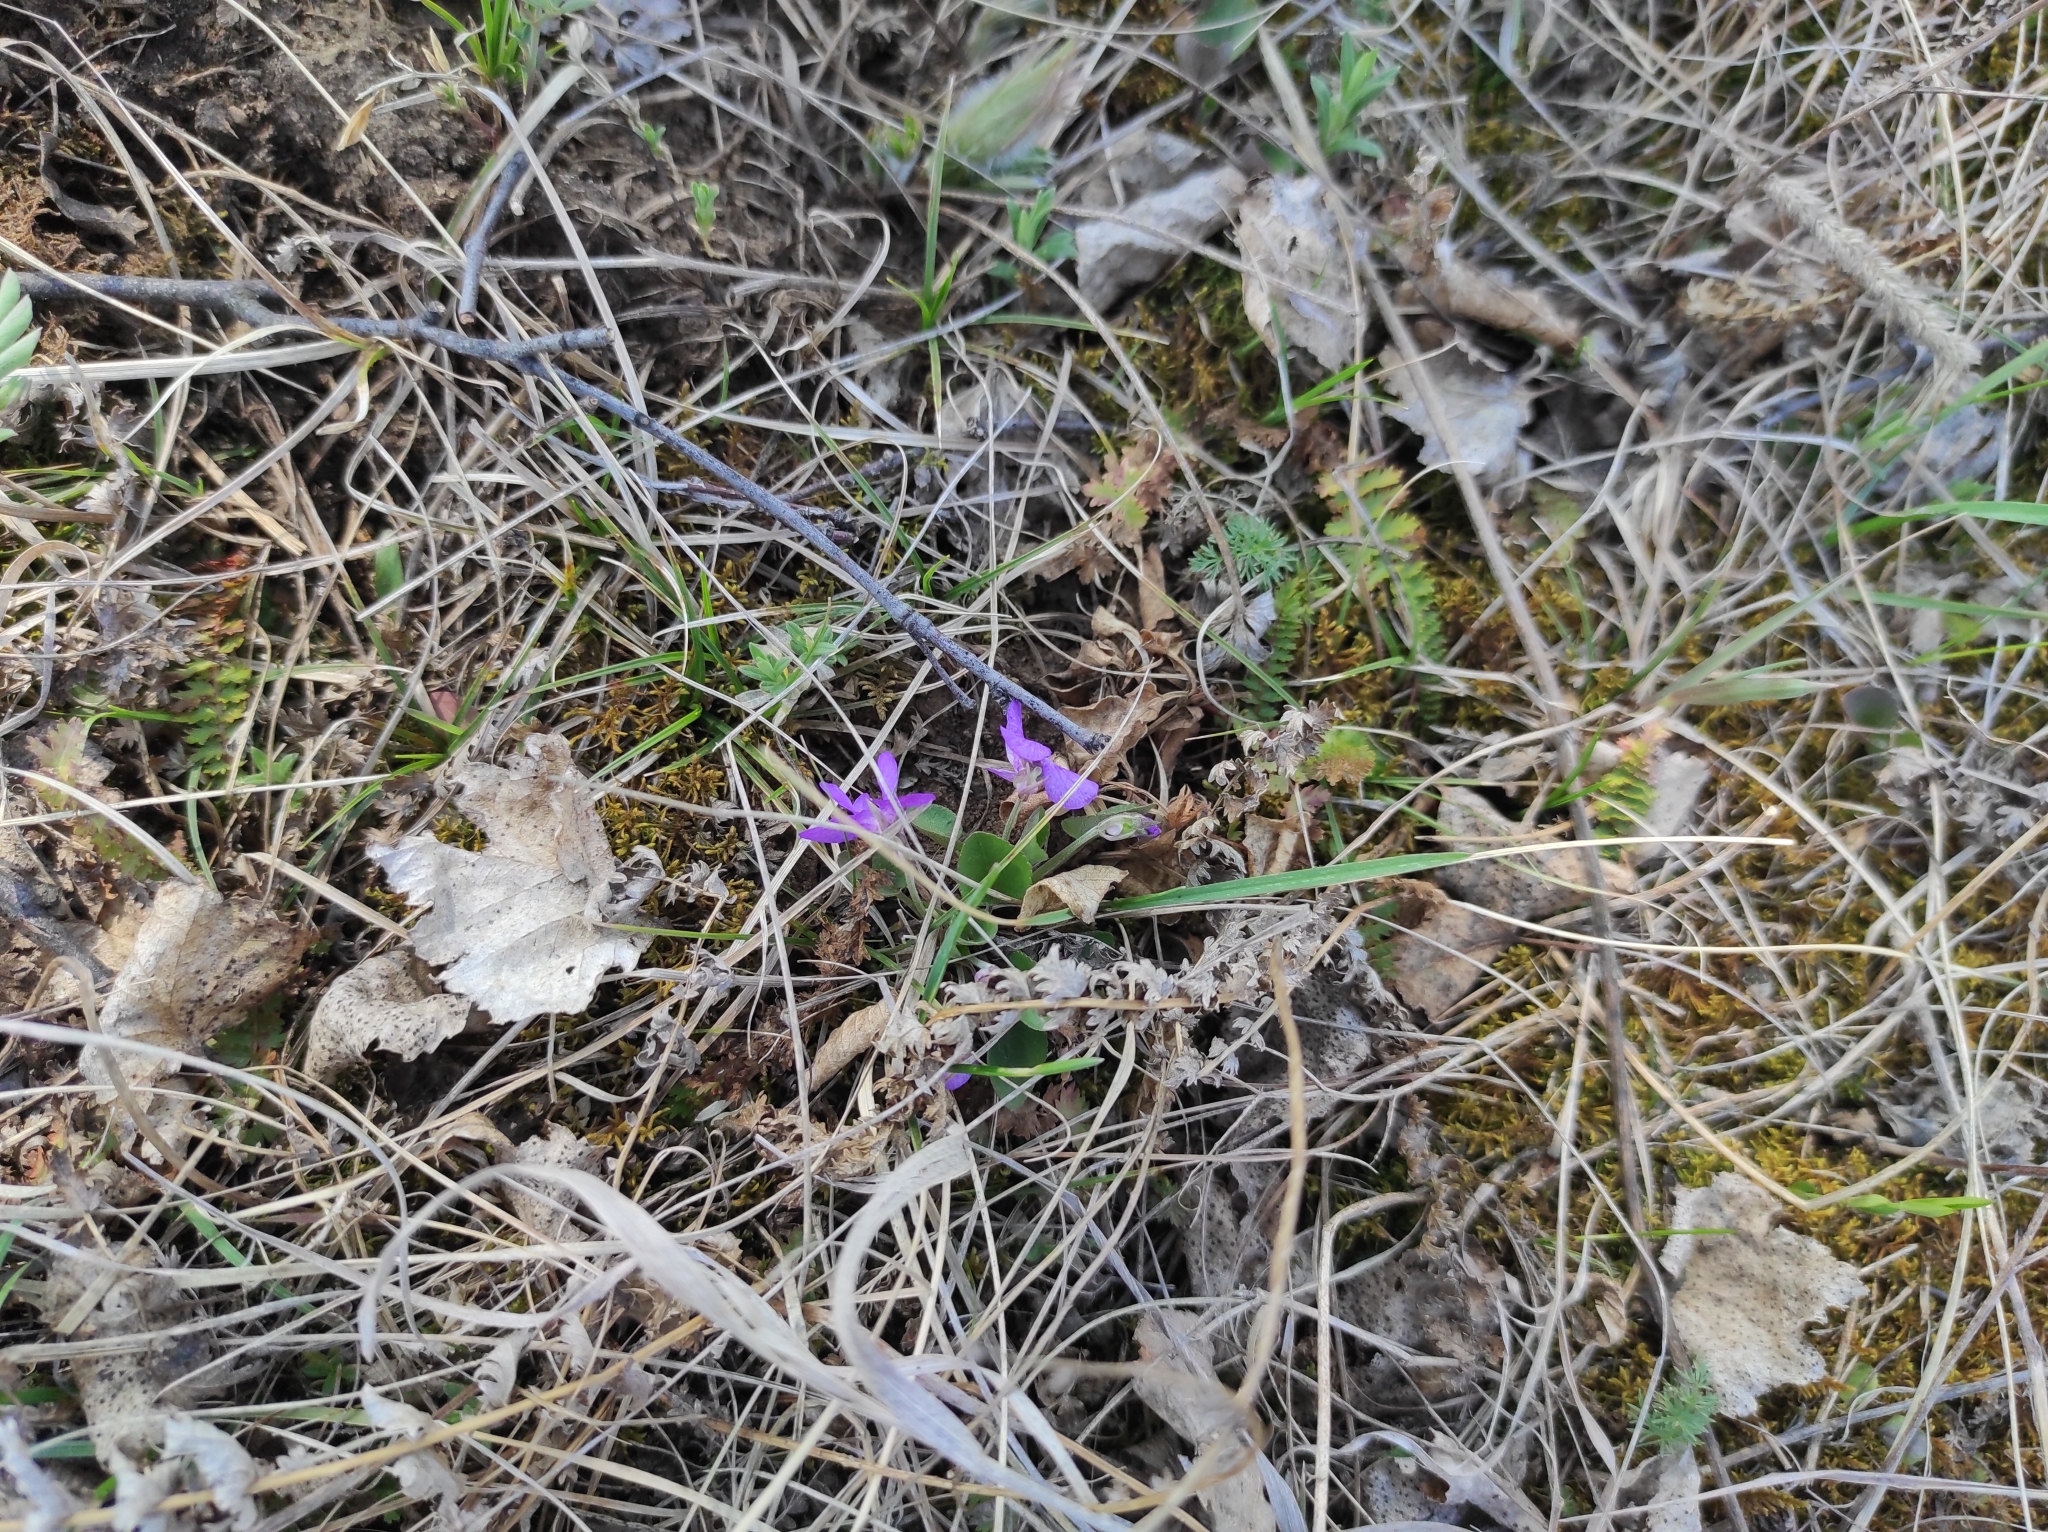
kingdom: Plantae
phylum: Tracheophyta
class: Magnoliopsida
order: Malpighiales
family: Violaceae
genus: Viola
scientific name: Viola rupestris
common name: Teesdale violet
